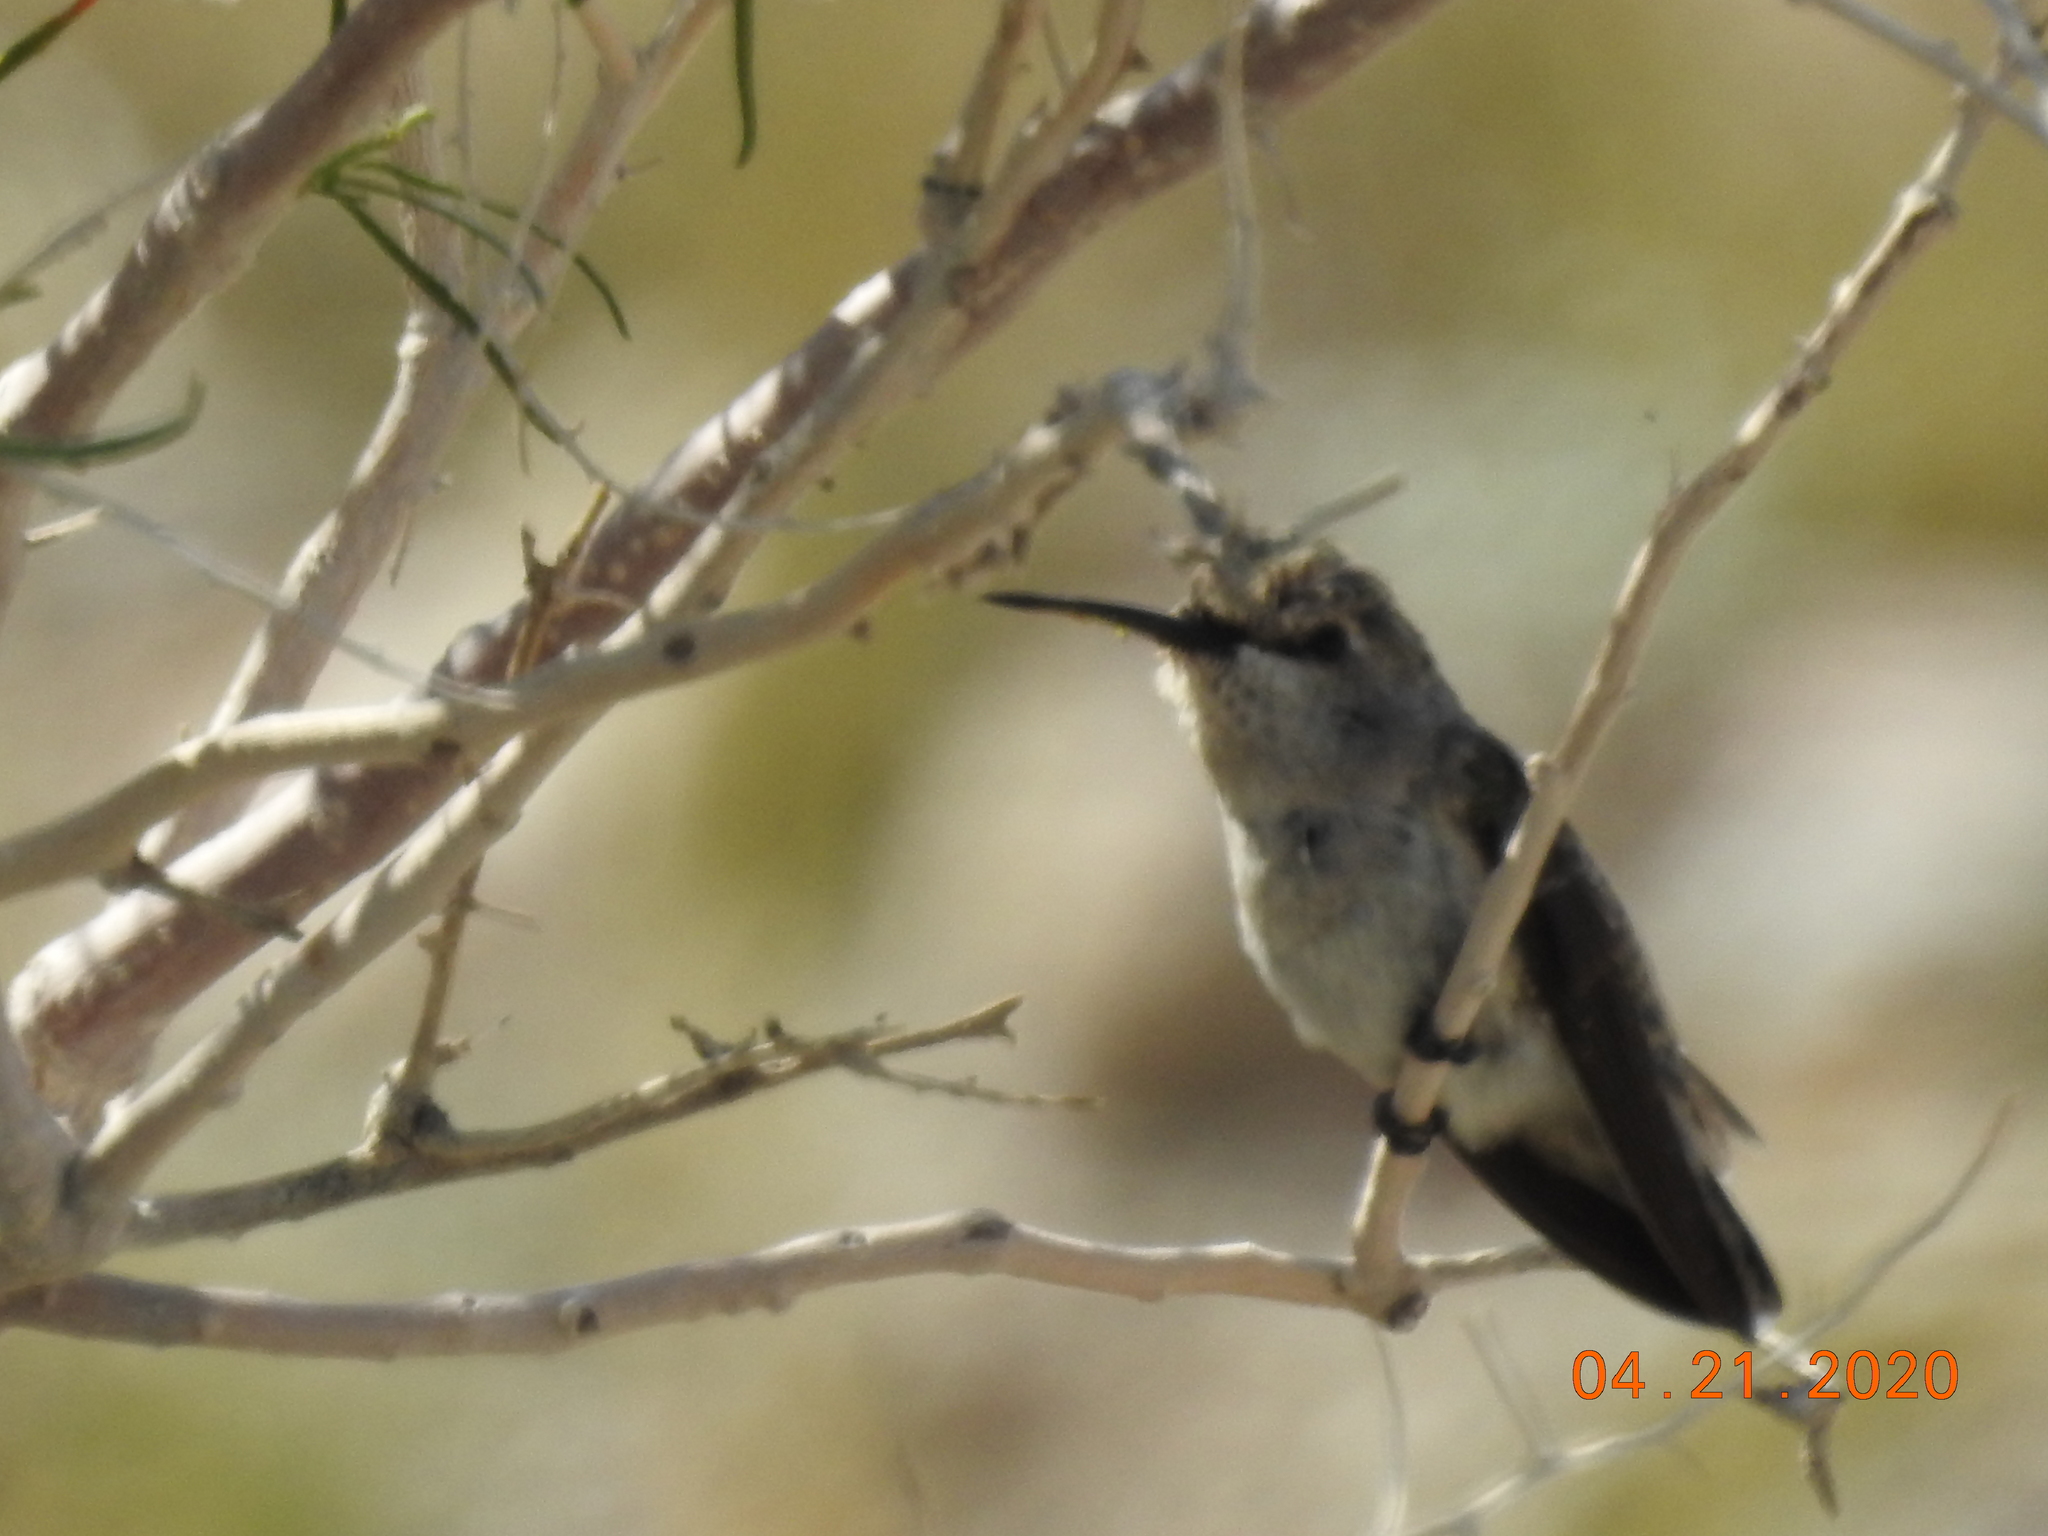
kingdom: Animalia
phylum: Chordata
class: Aves
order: Apodiformes
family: Trochilidae
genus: Calypte
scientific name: Calypte costae
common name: Costa's hummingbird
